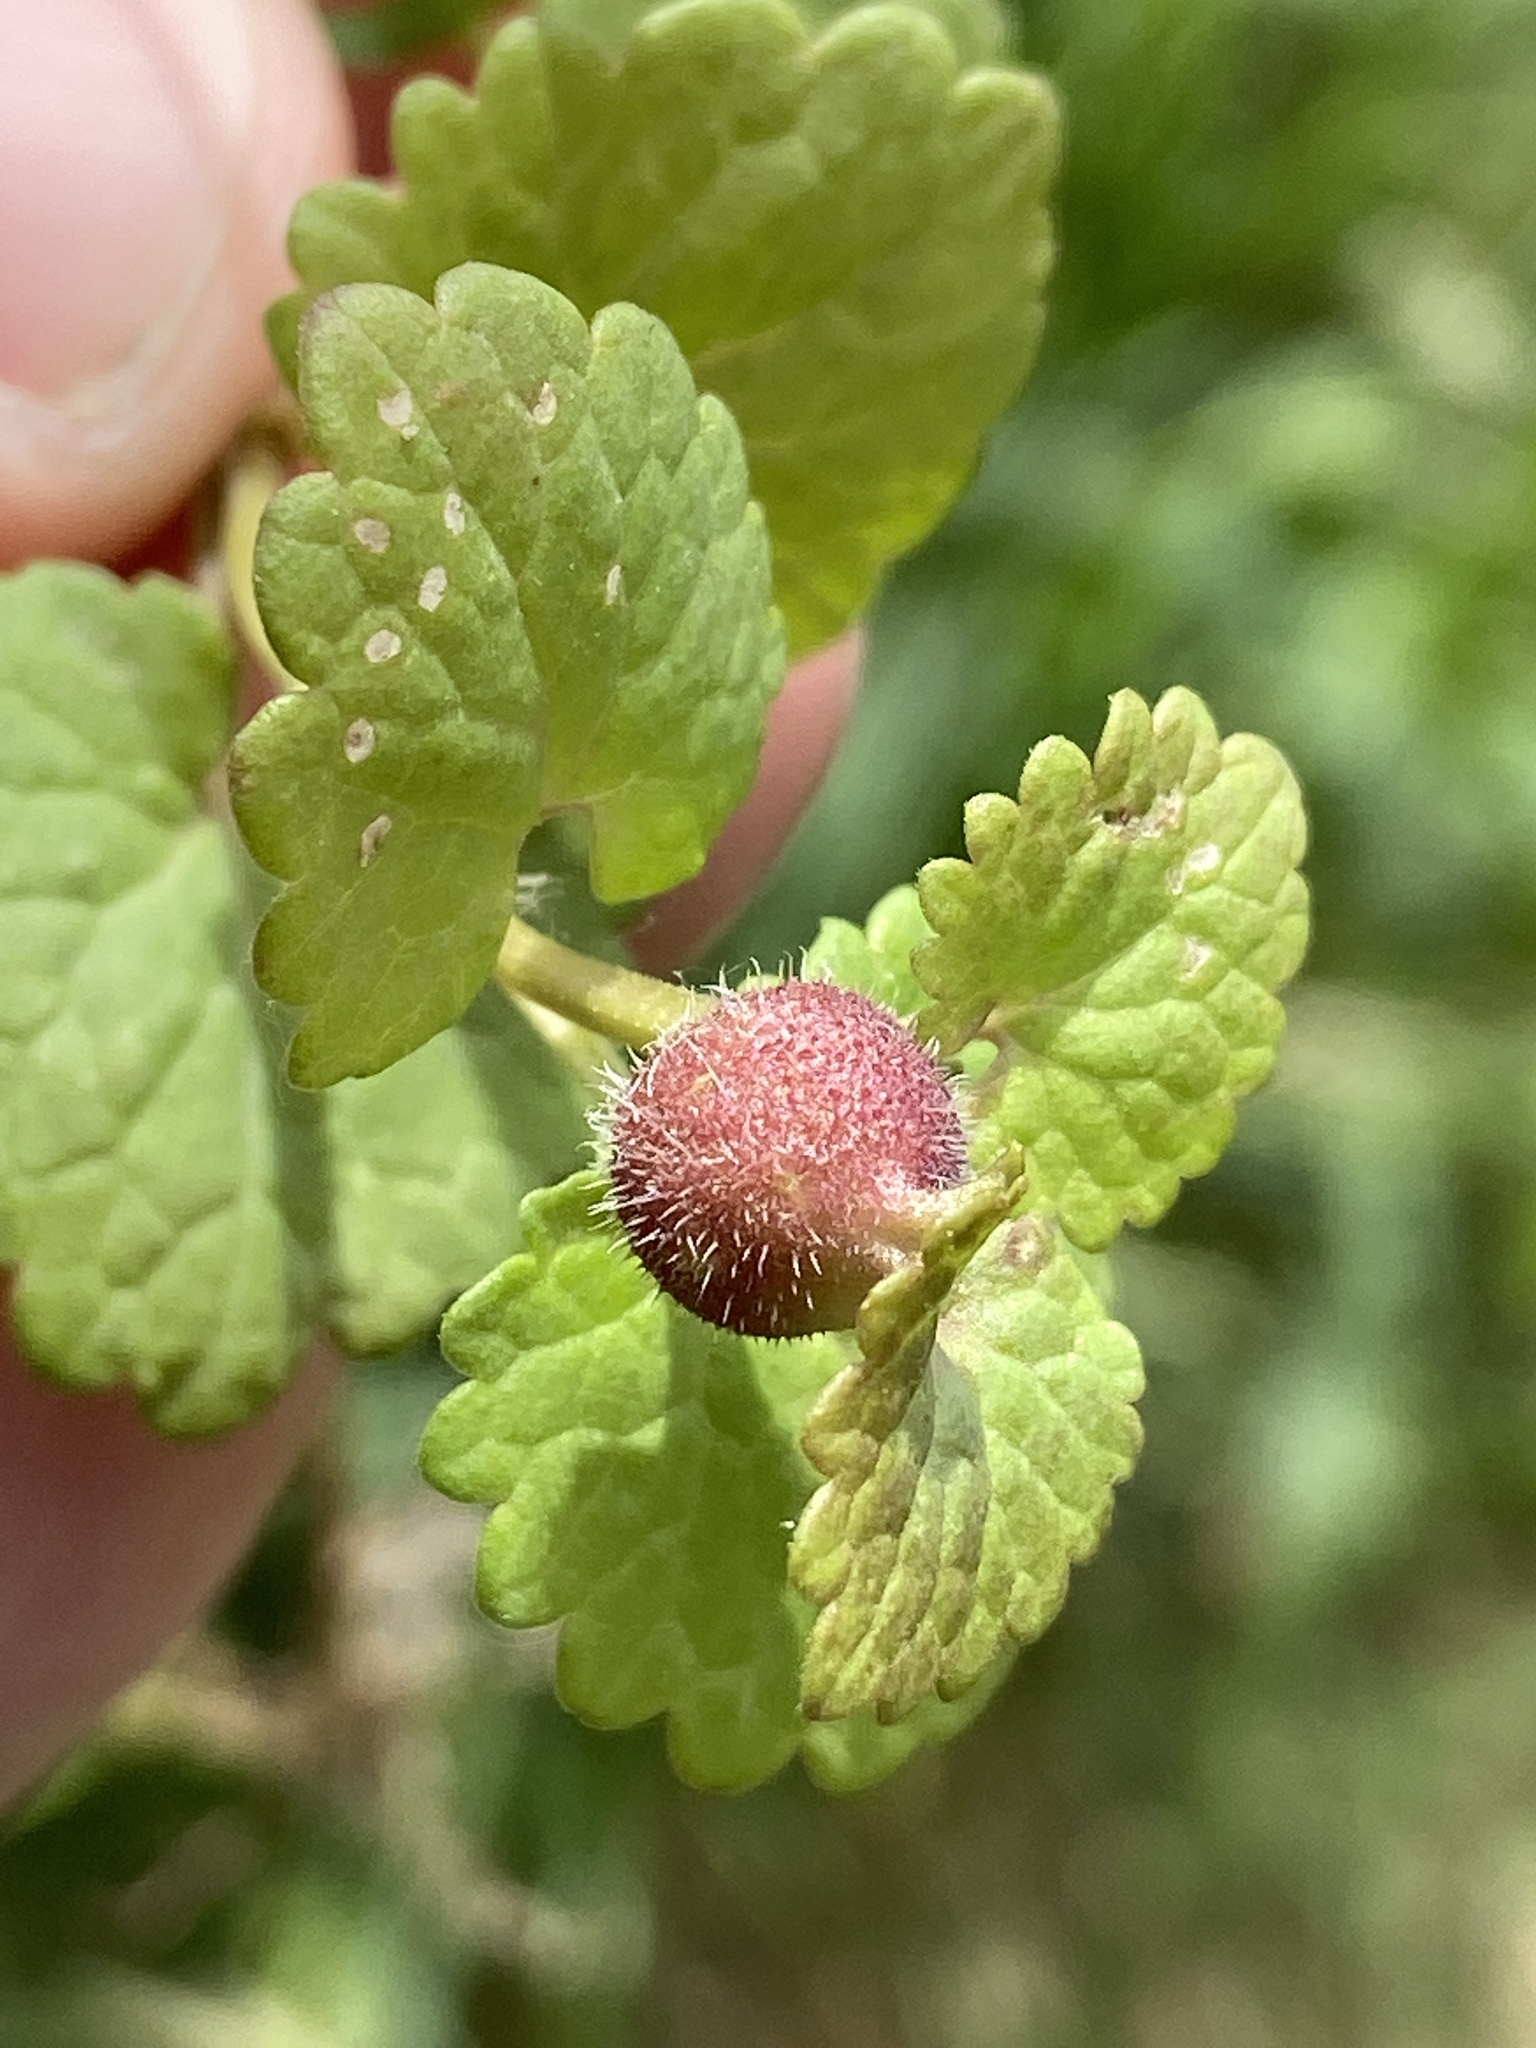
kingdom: Animalia
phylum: Arthropoda
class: Insecta
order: Hymenoptera
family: Cynipidae
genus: Liposthenes
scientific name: Liposthenes glechomae
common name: Gall wasp
